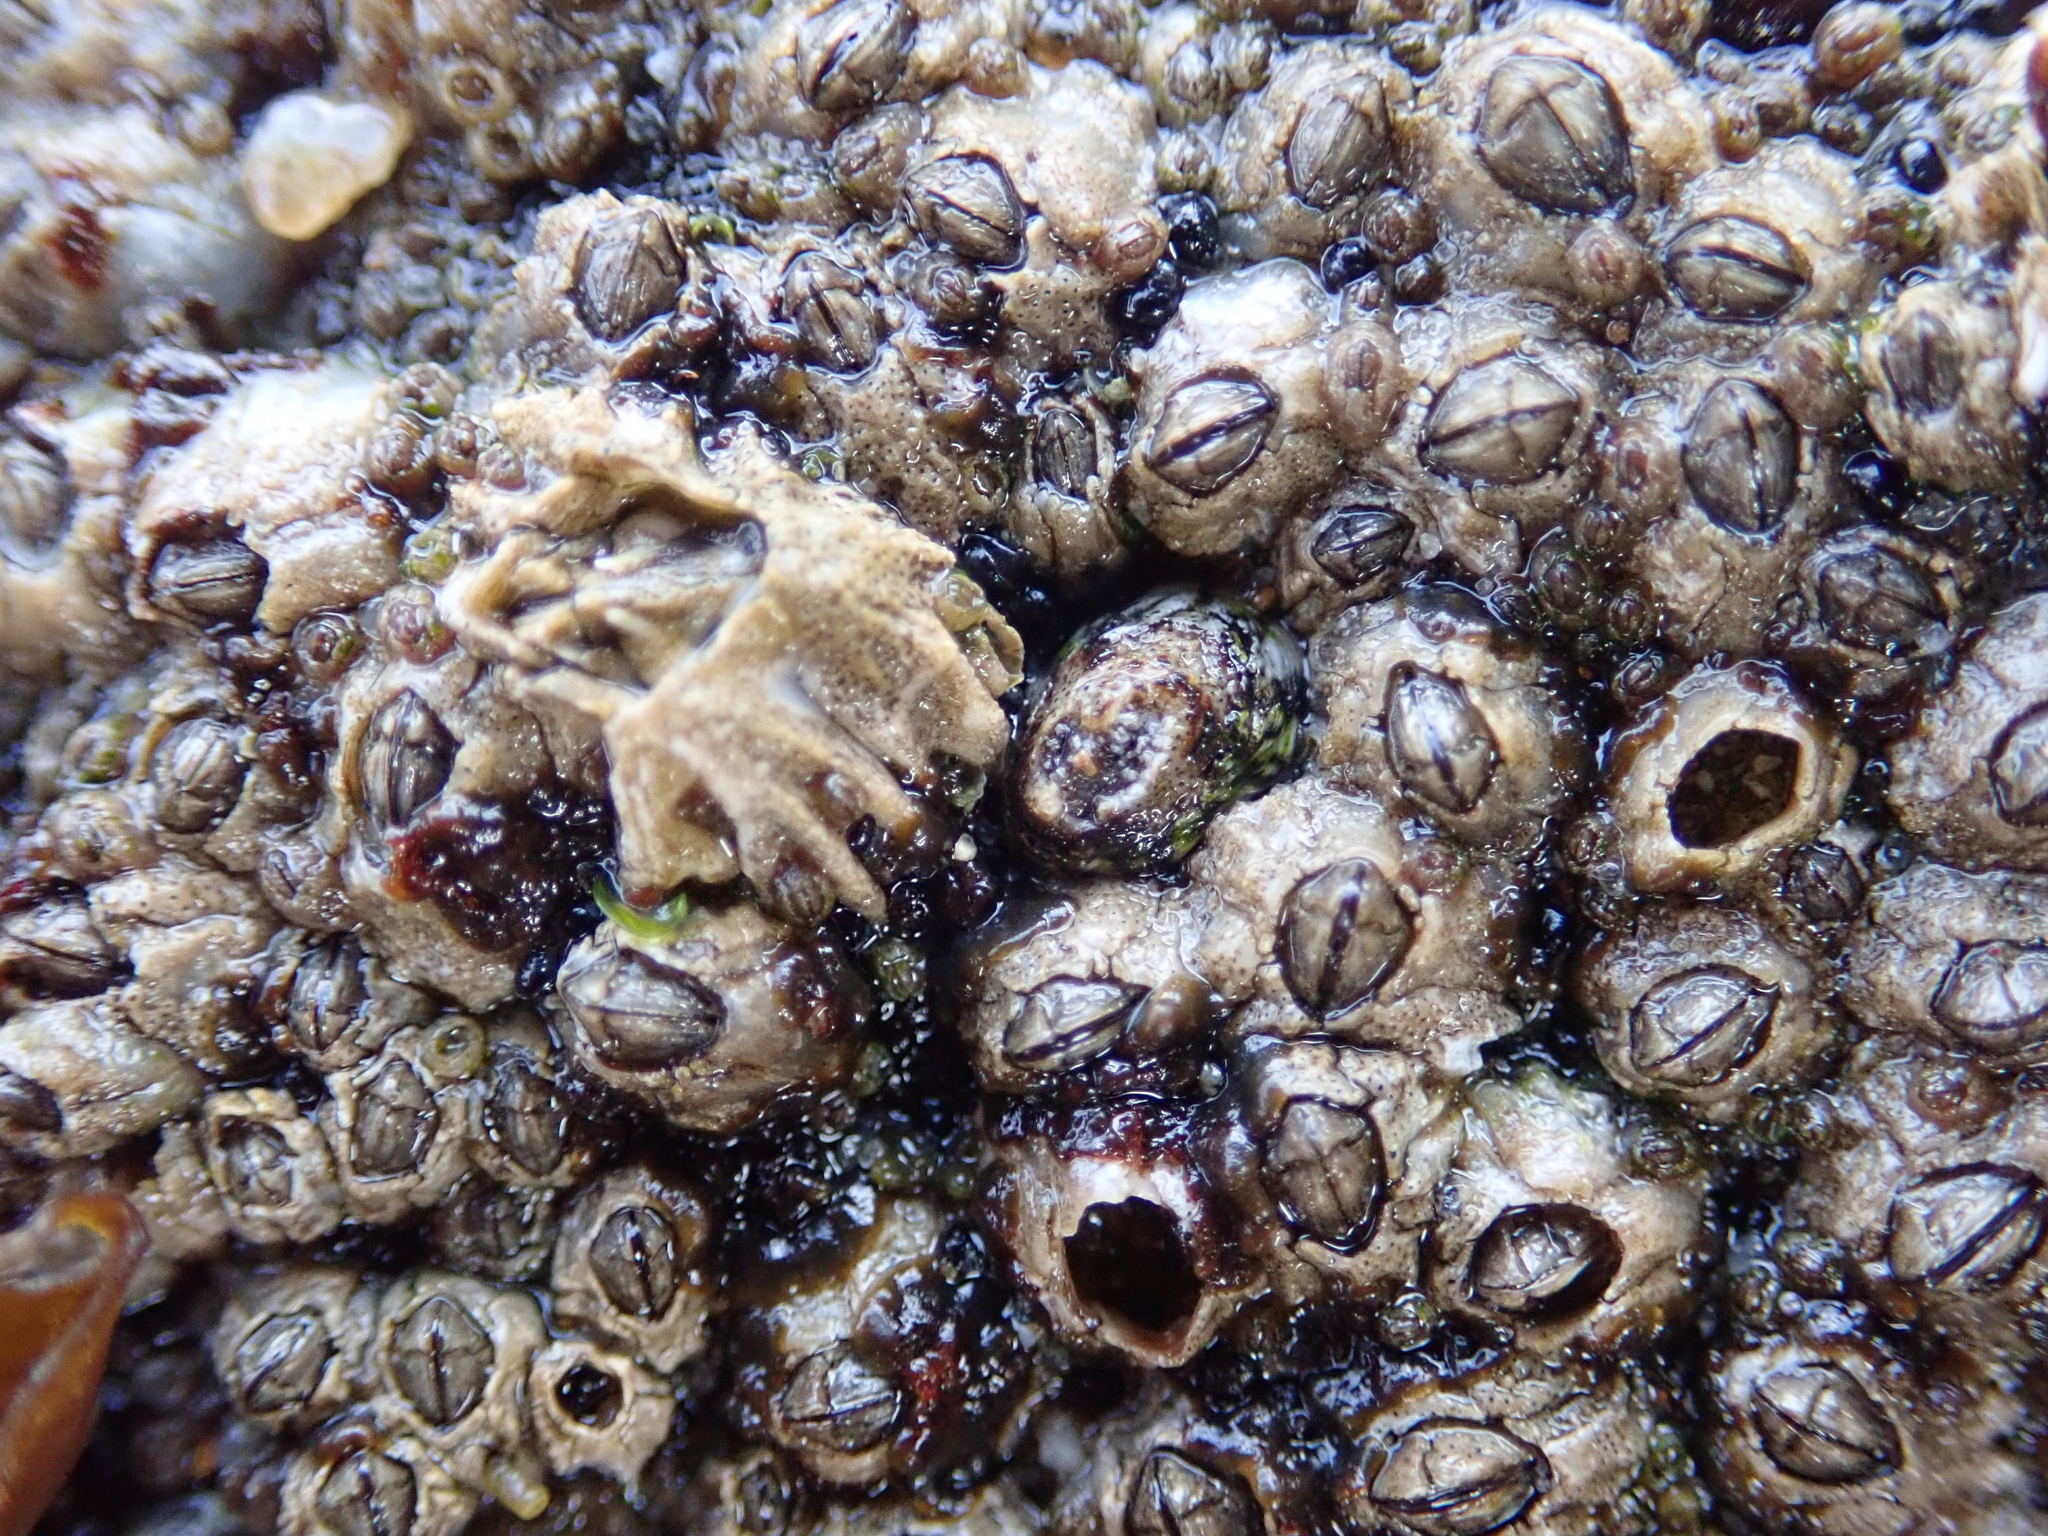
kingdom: Animalia
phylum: Arthropoda
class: Maxillopoda
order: Sessilia
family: Balanidae
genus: Balanus
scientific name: Balanus glandula
